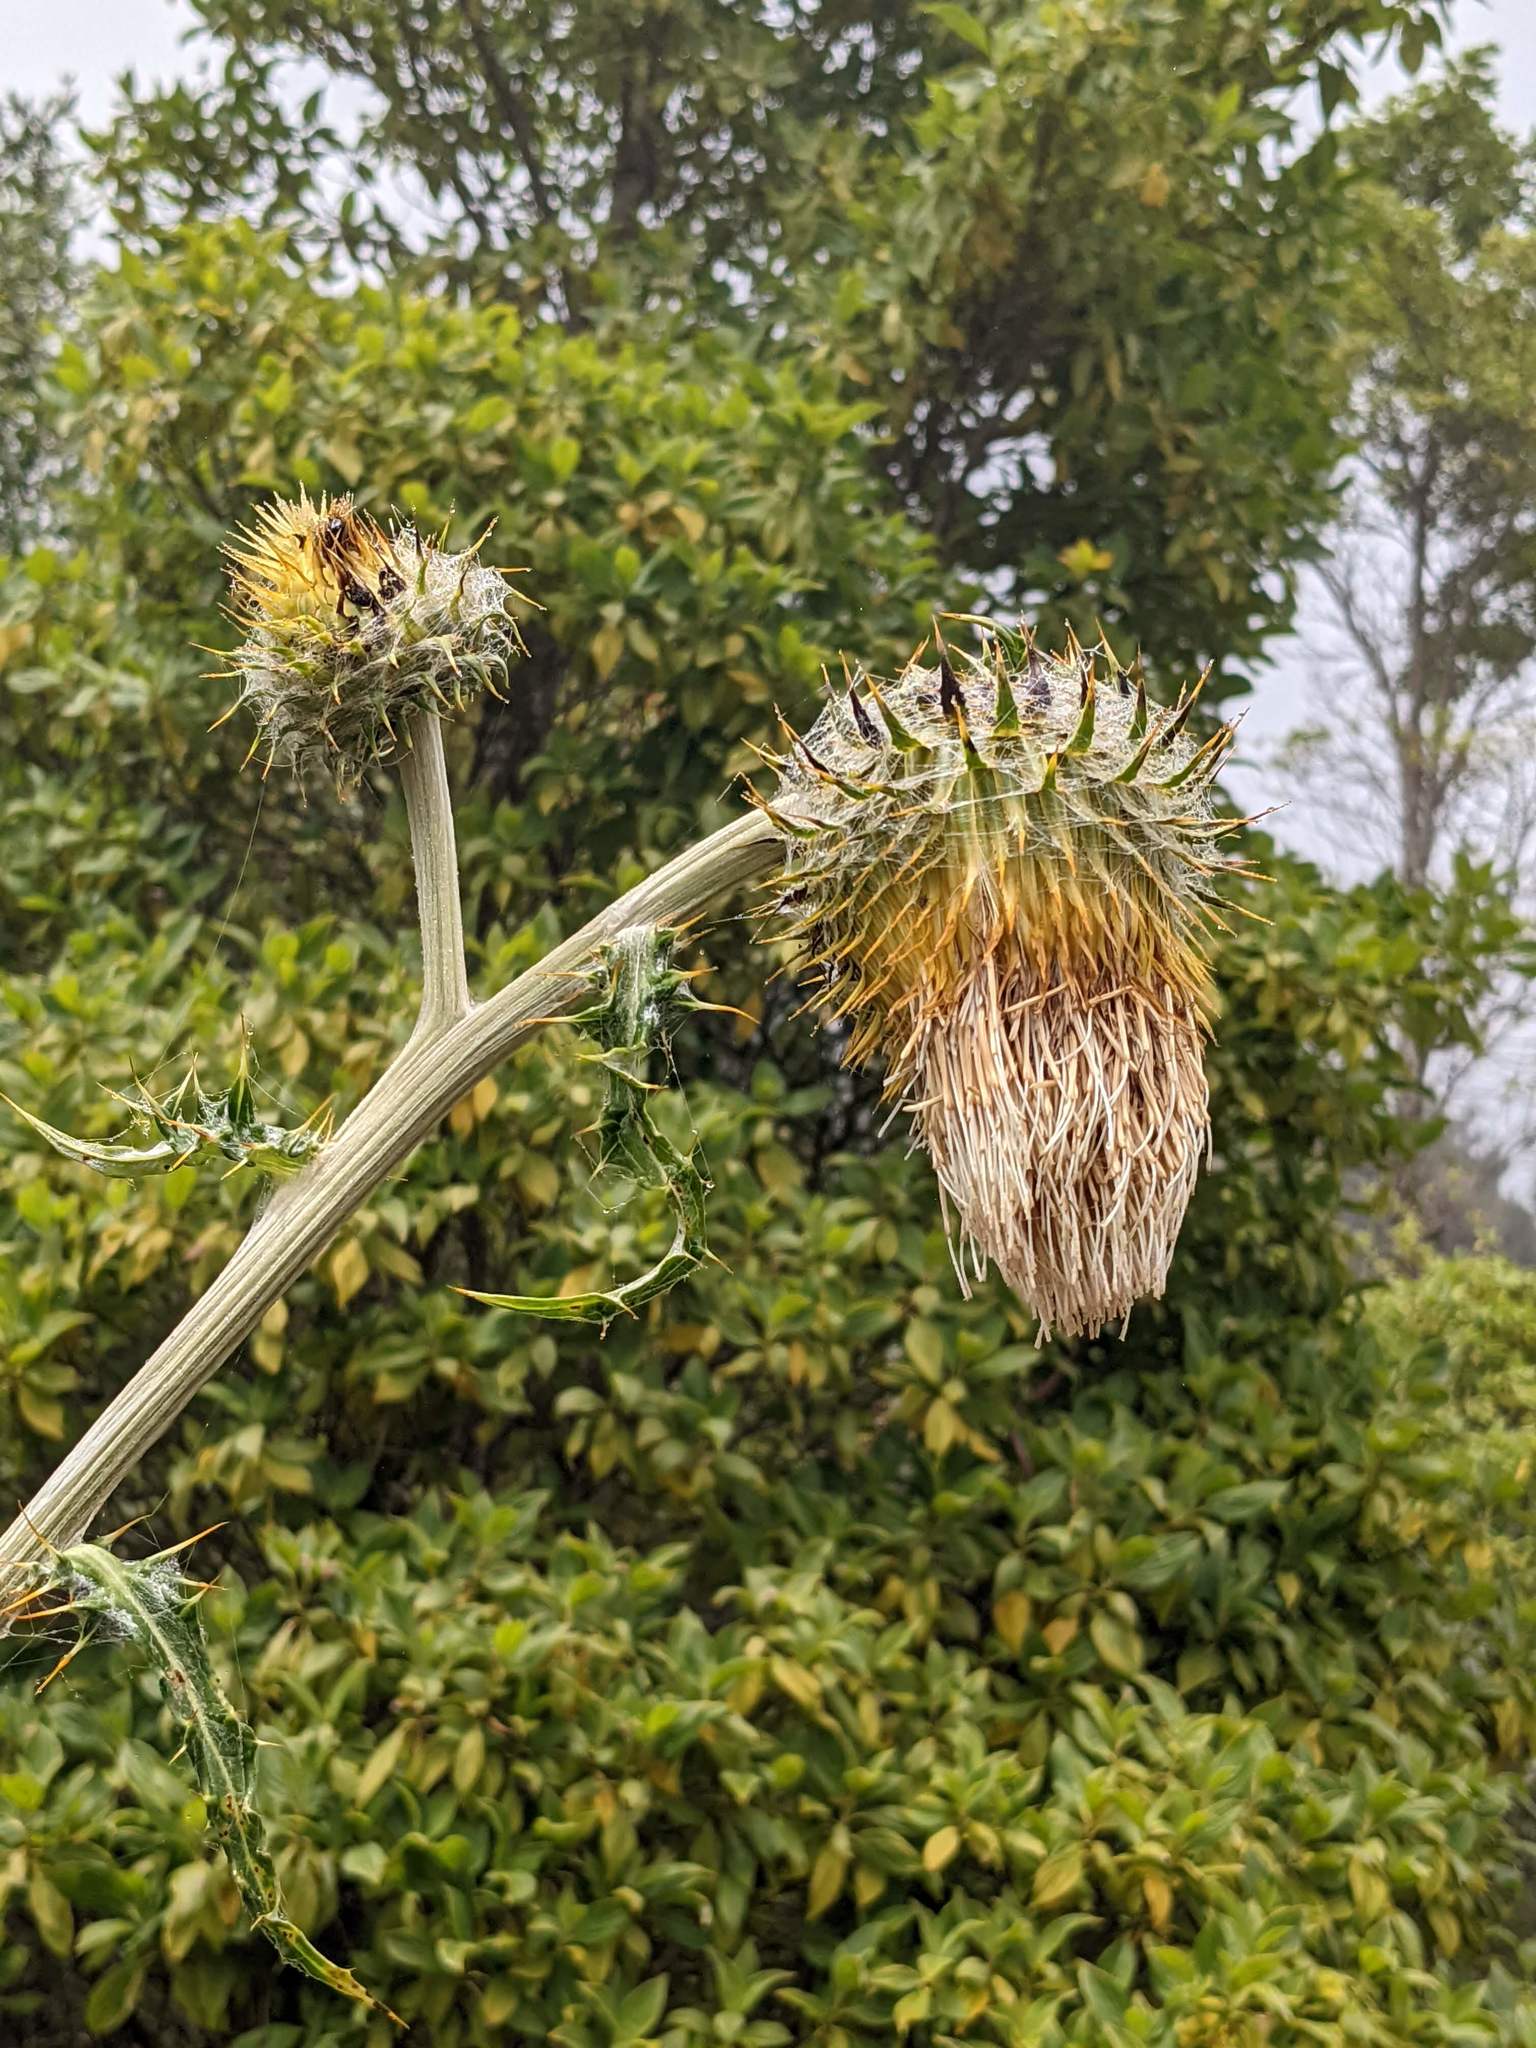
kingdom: Plantae
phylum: Tracheophyta
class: Magnoliopsida
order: Asterales
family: Asteraceae
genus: Cirsium
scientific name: Cirsium subcoriaceum
